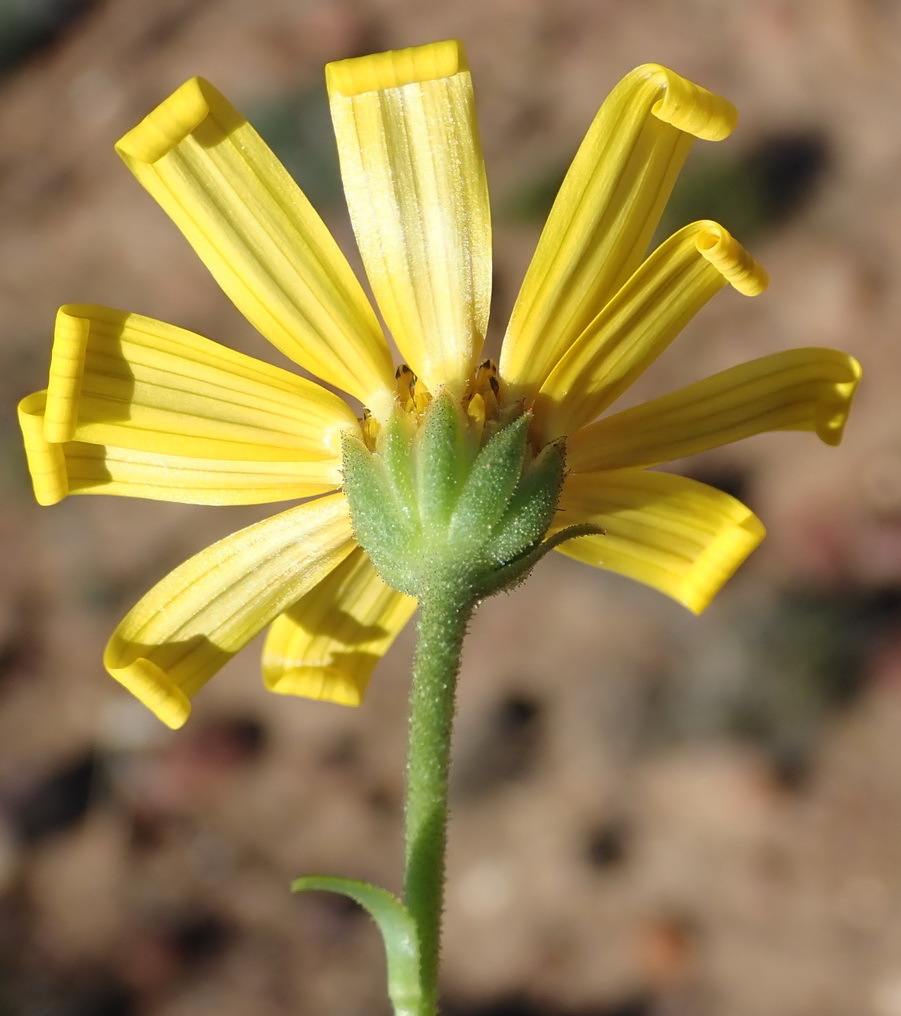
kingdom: Plantae
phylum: Tracheophyta
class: Magnoliopsida
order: Asterales
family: Asteraceae
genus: Osteospermum
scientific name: Osteospermum polygaloides
